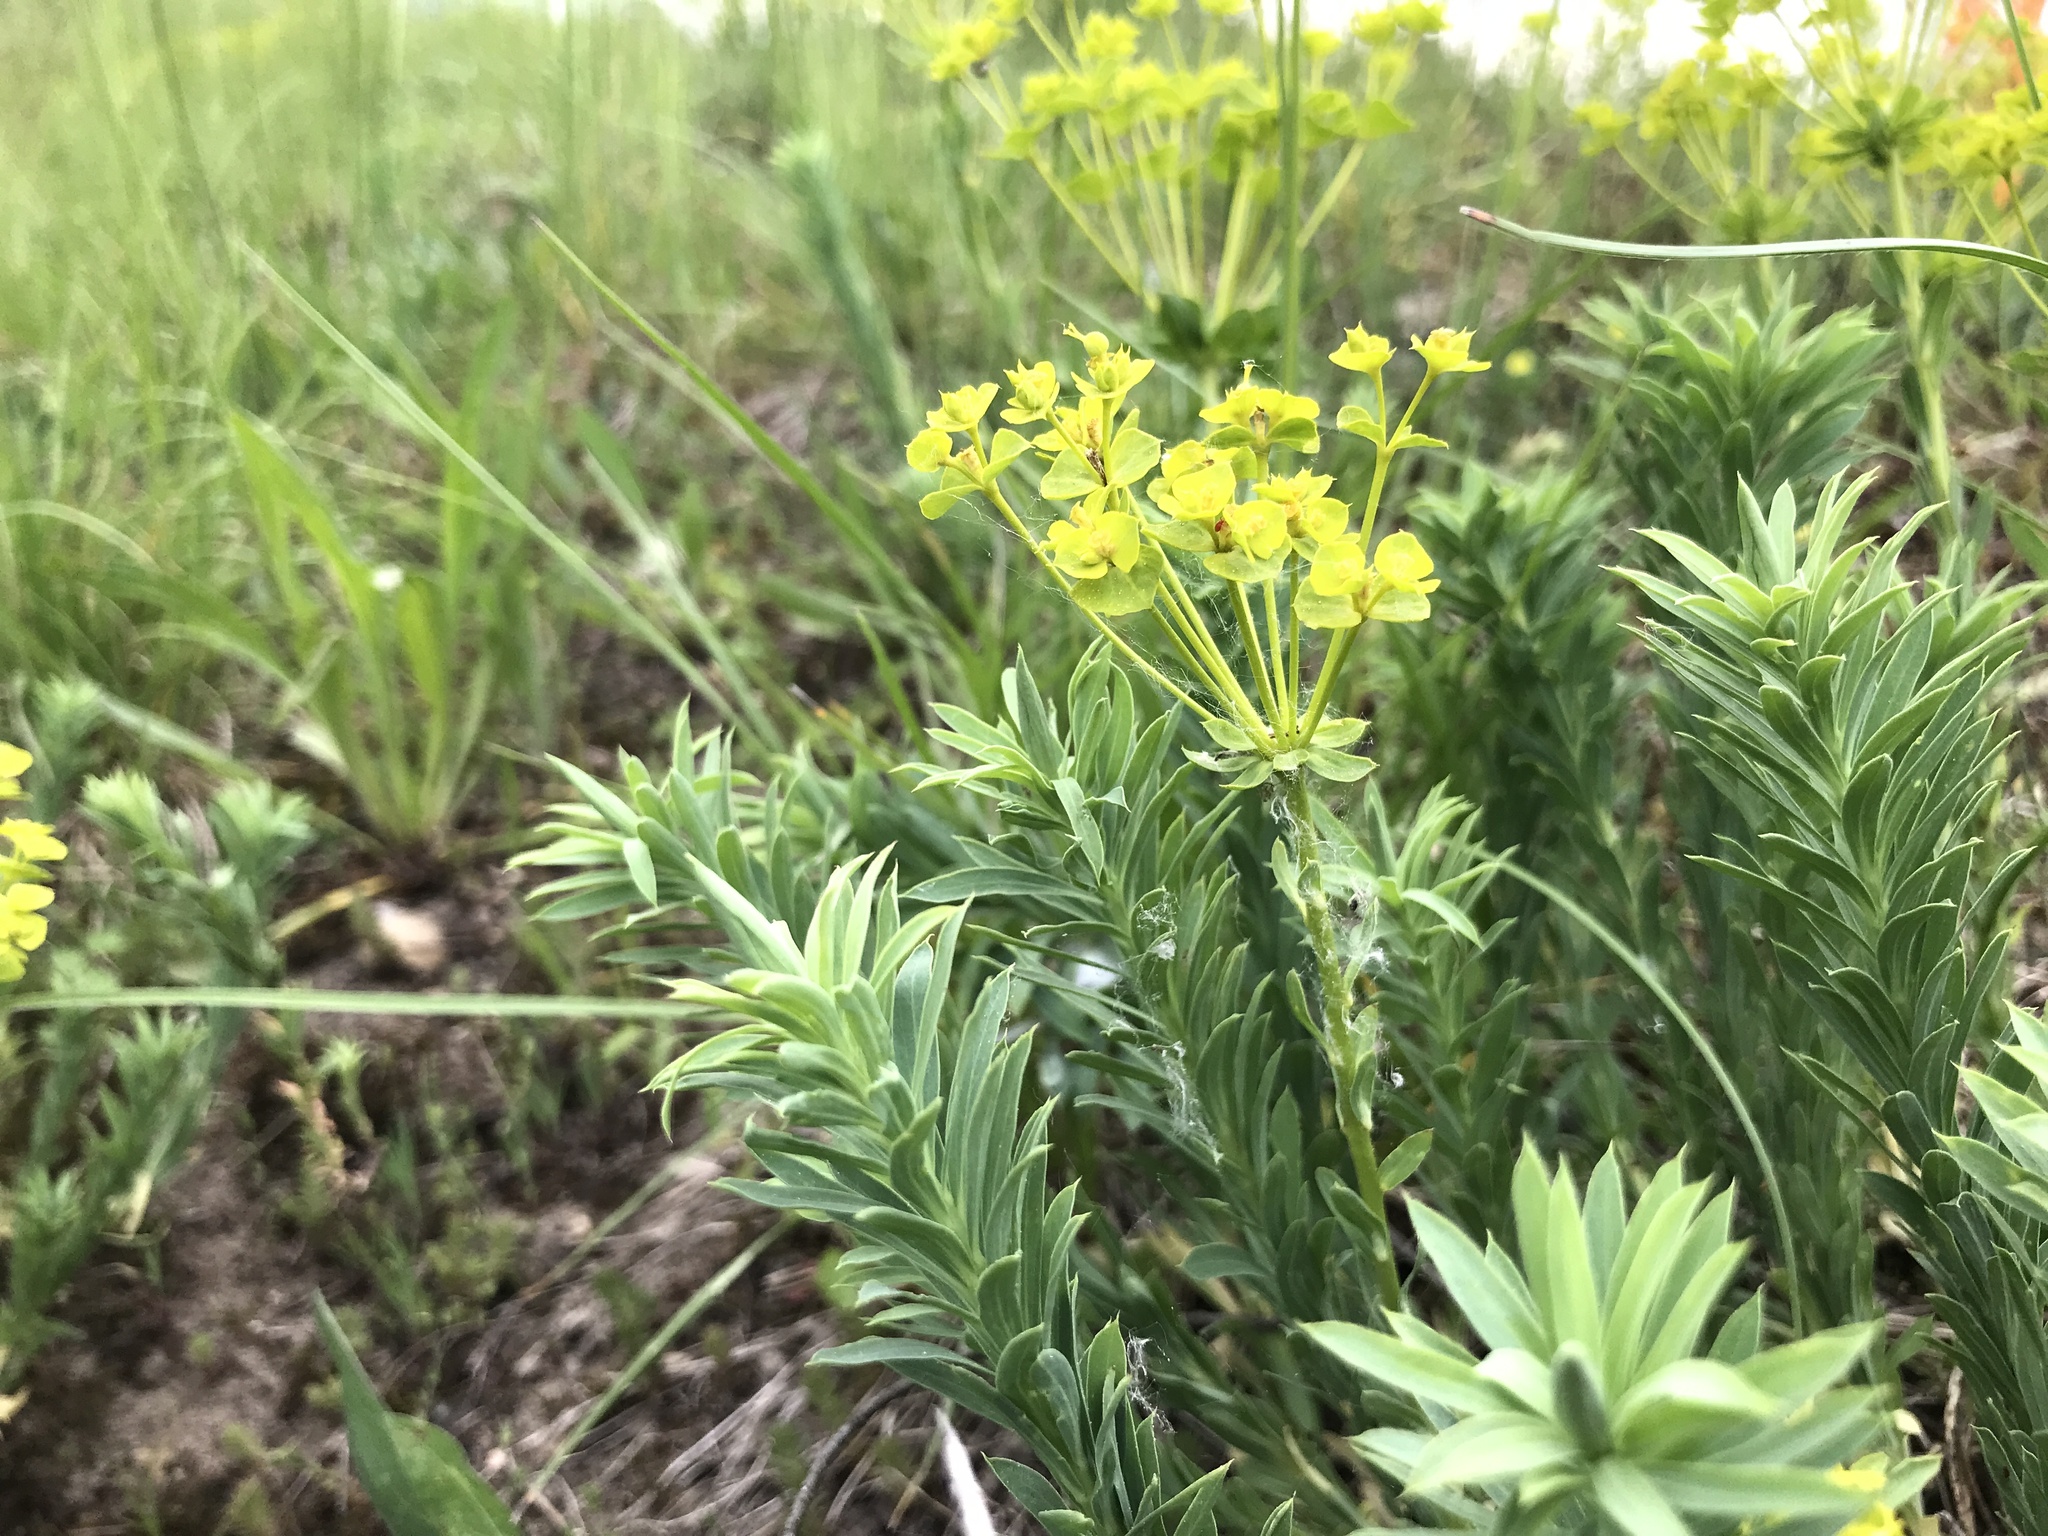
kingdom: Plantae
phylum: Tracheophyta
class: Magnoliopsida
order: Malpighiales
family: Euphorbiaceae
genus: Euphorbia
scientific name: Euphorbia seguieriana
